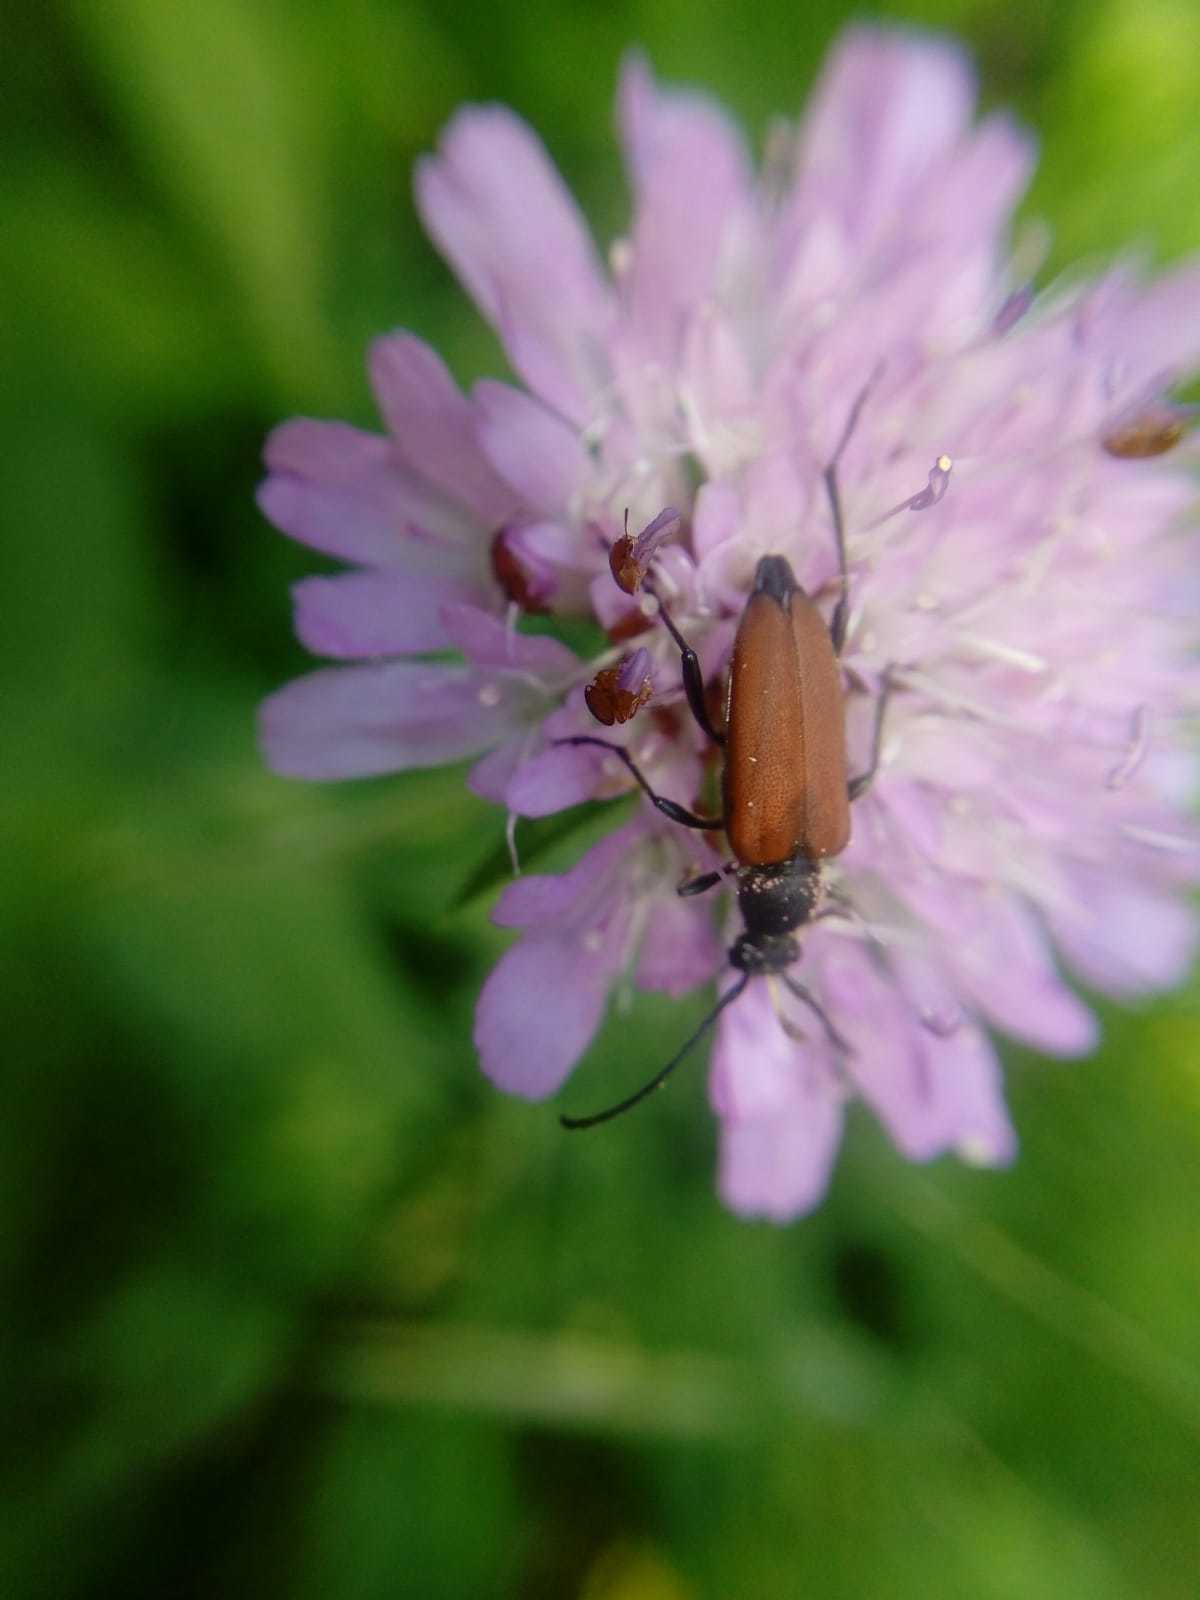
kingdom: Animalia
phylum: Arthropoda
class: Insecta
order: Coleoptera
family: Cerambycidae
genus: Anastrangalia
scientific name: Anastrangalia sanguinolenta
